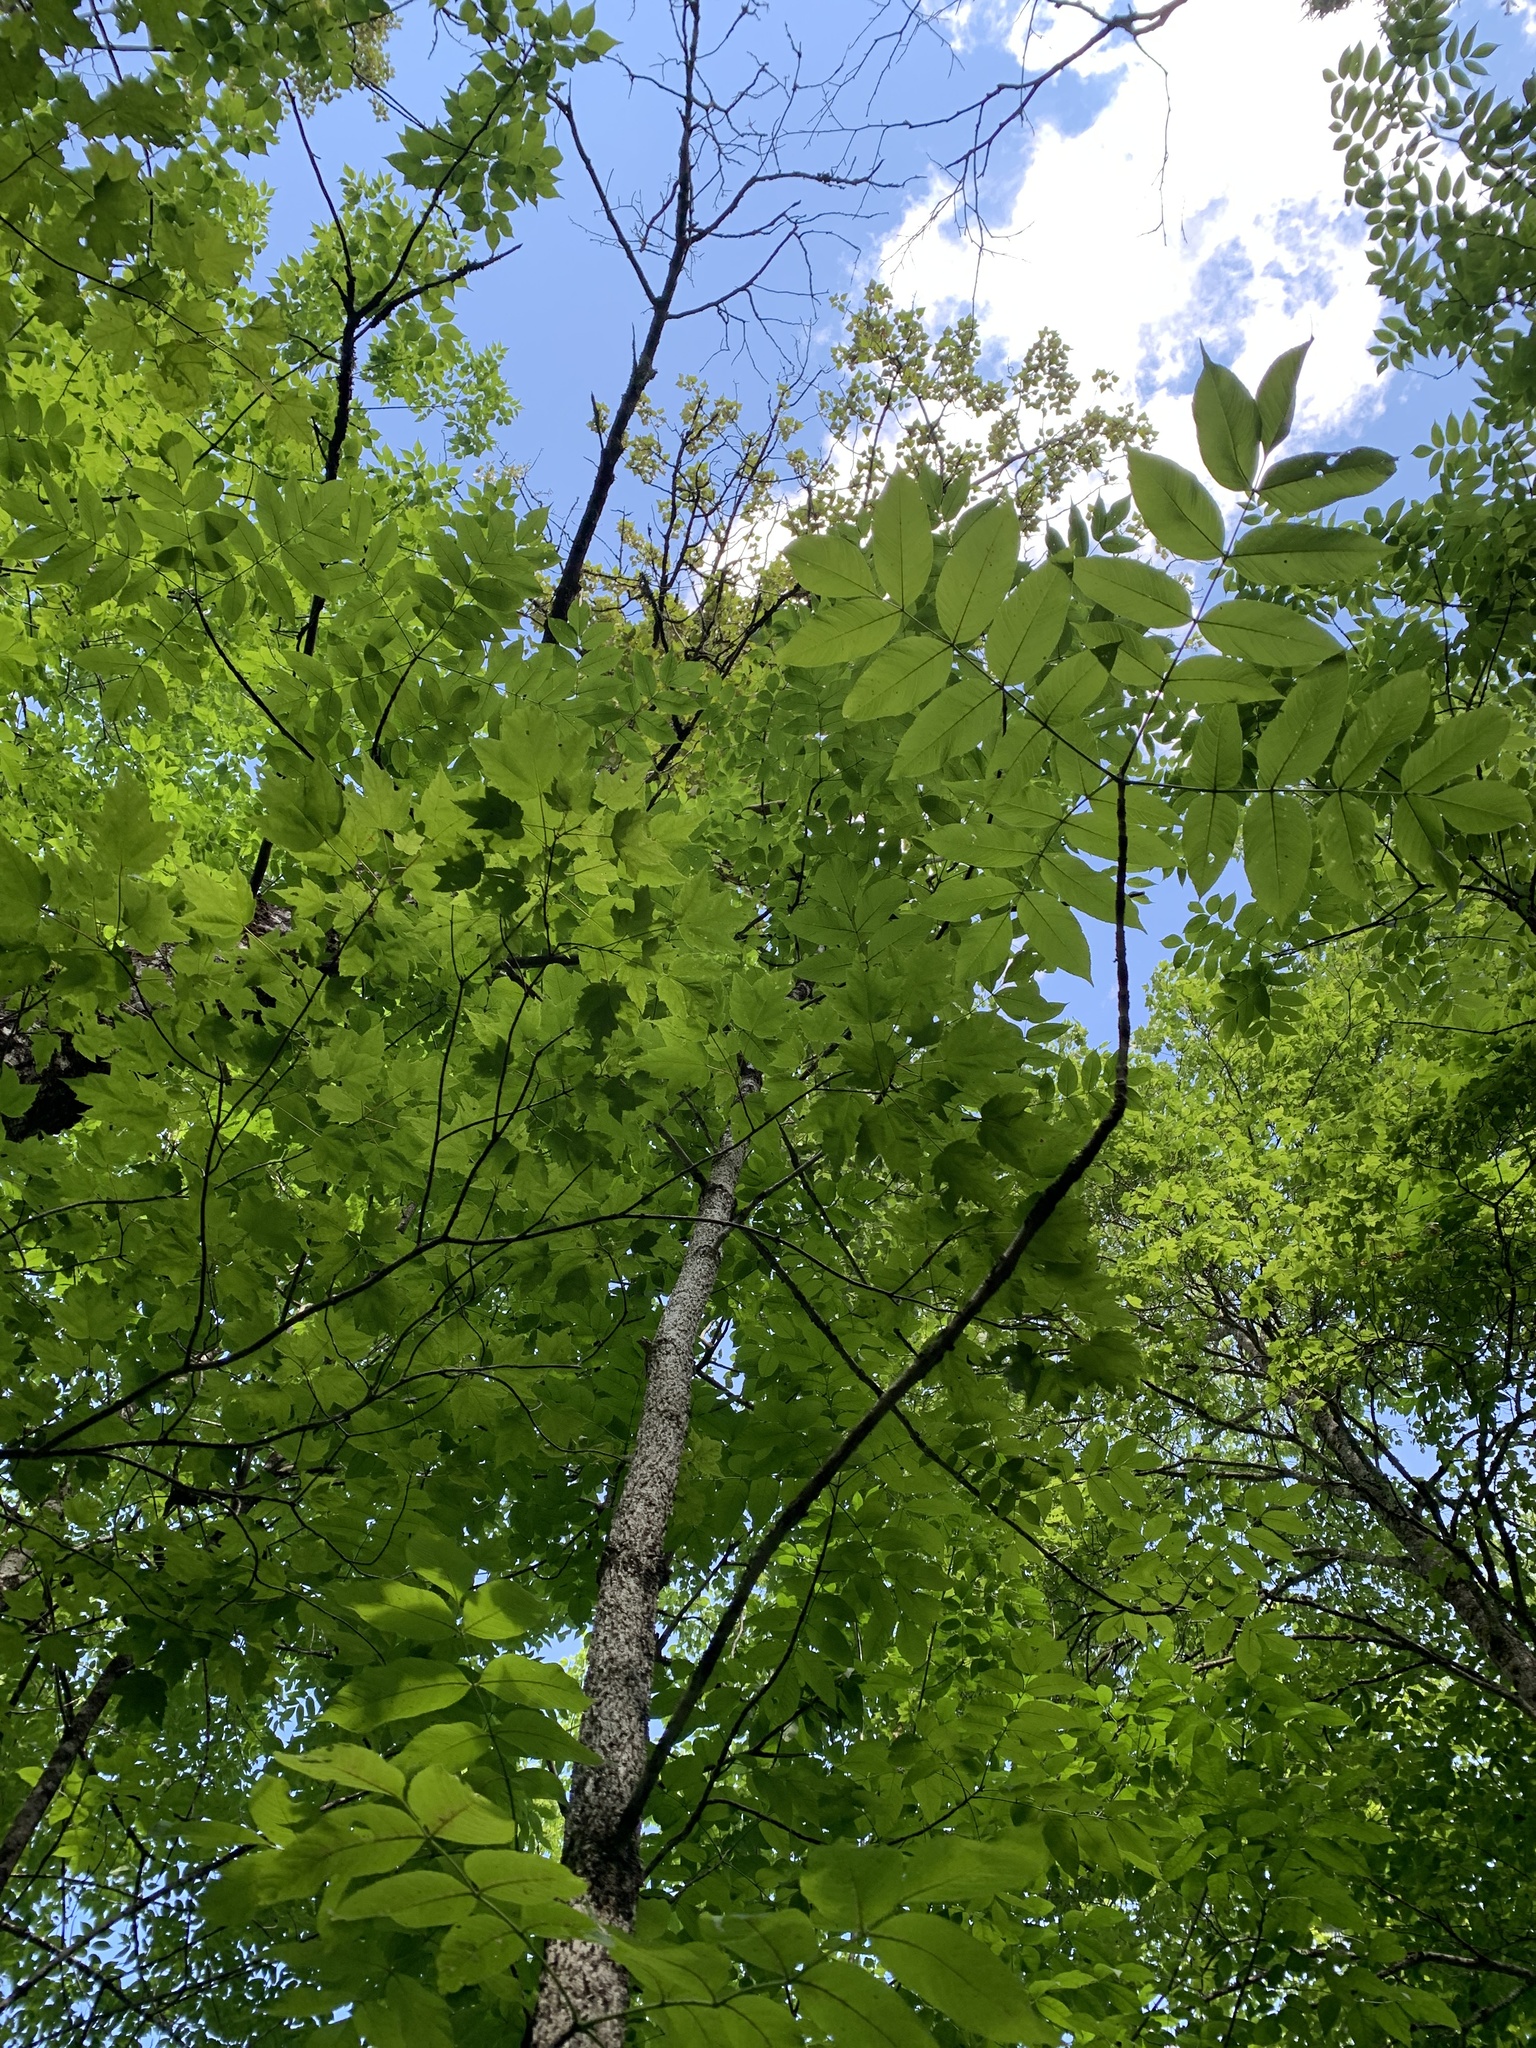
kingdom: Plantae
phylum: Tracheophyta
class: Magnoliopsida
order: Lamiales
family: Oleaceae
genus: Fraxinus
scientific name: Fraxinus nigra
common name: Black ash
